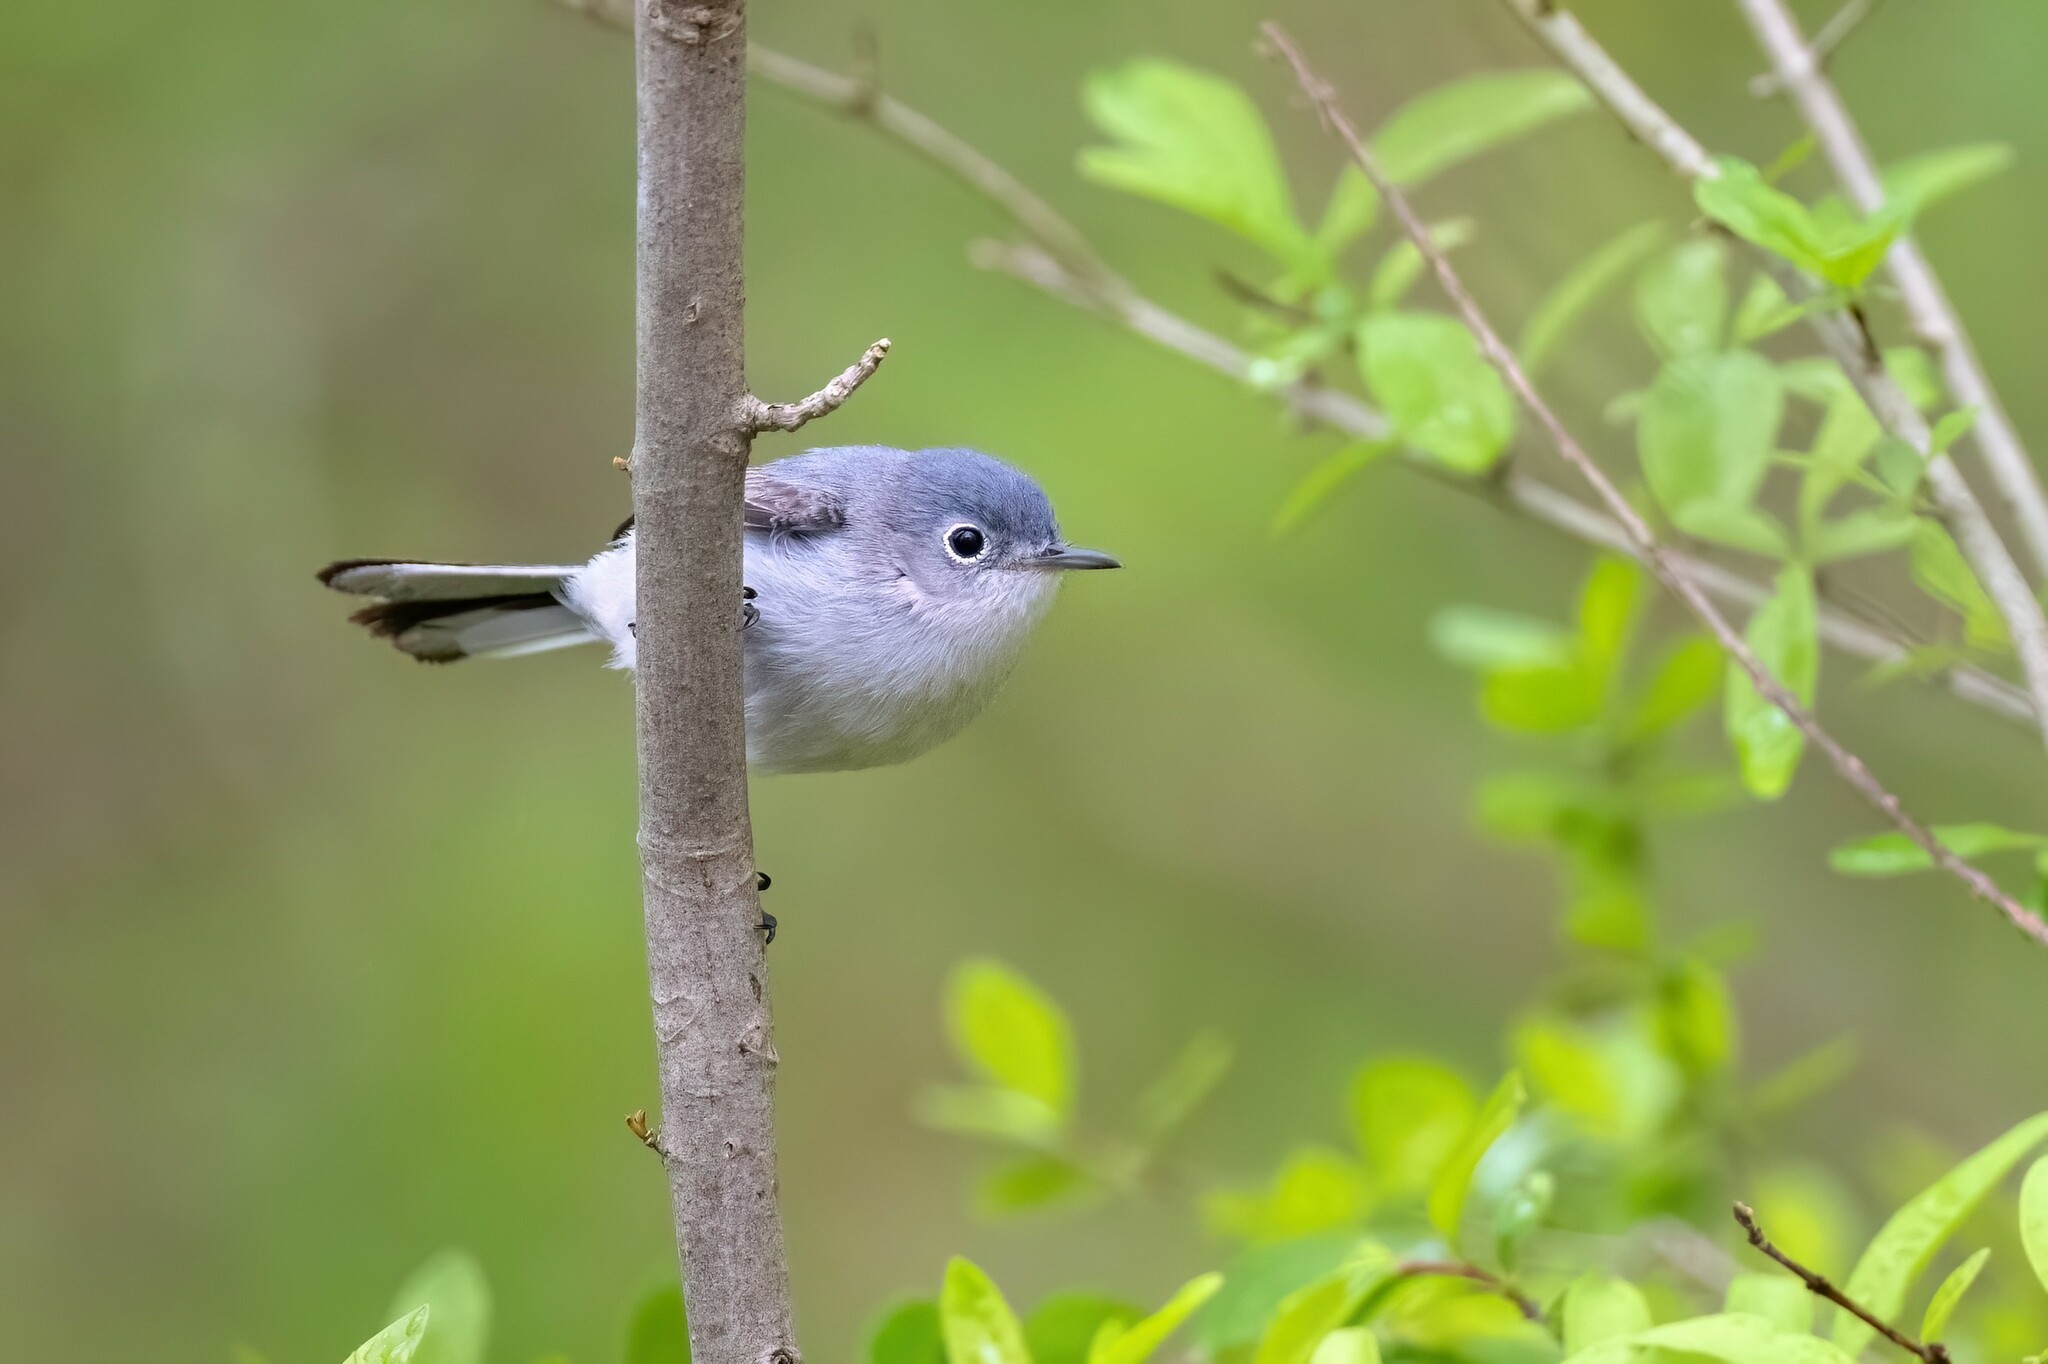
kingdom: Animalia
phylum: Chordata
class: Aves
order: Passeriformes
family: Polioptilidae
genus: Polioptila
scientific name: Polioptila caerulea
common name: Blue-gray gnatcatcher
